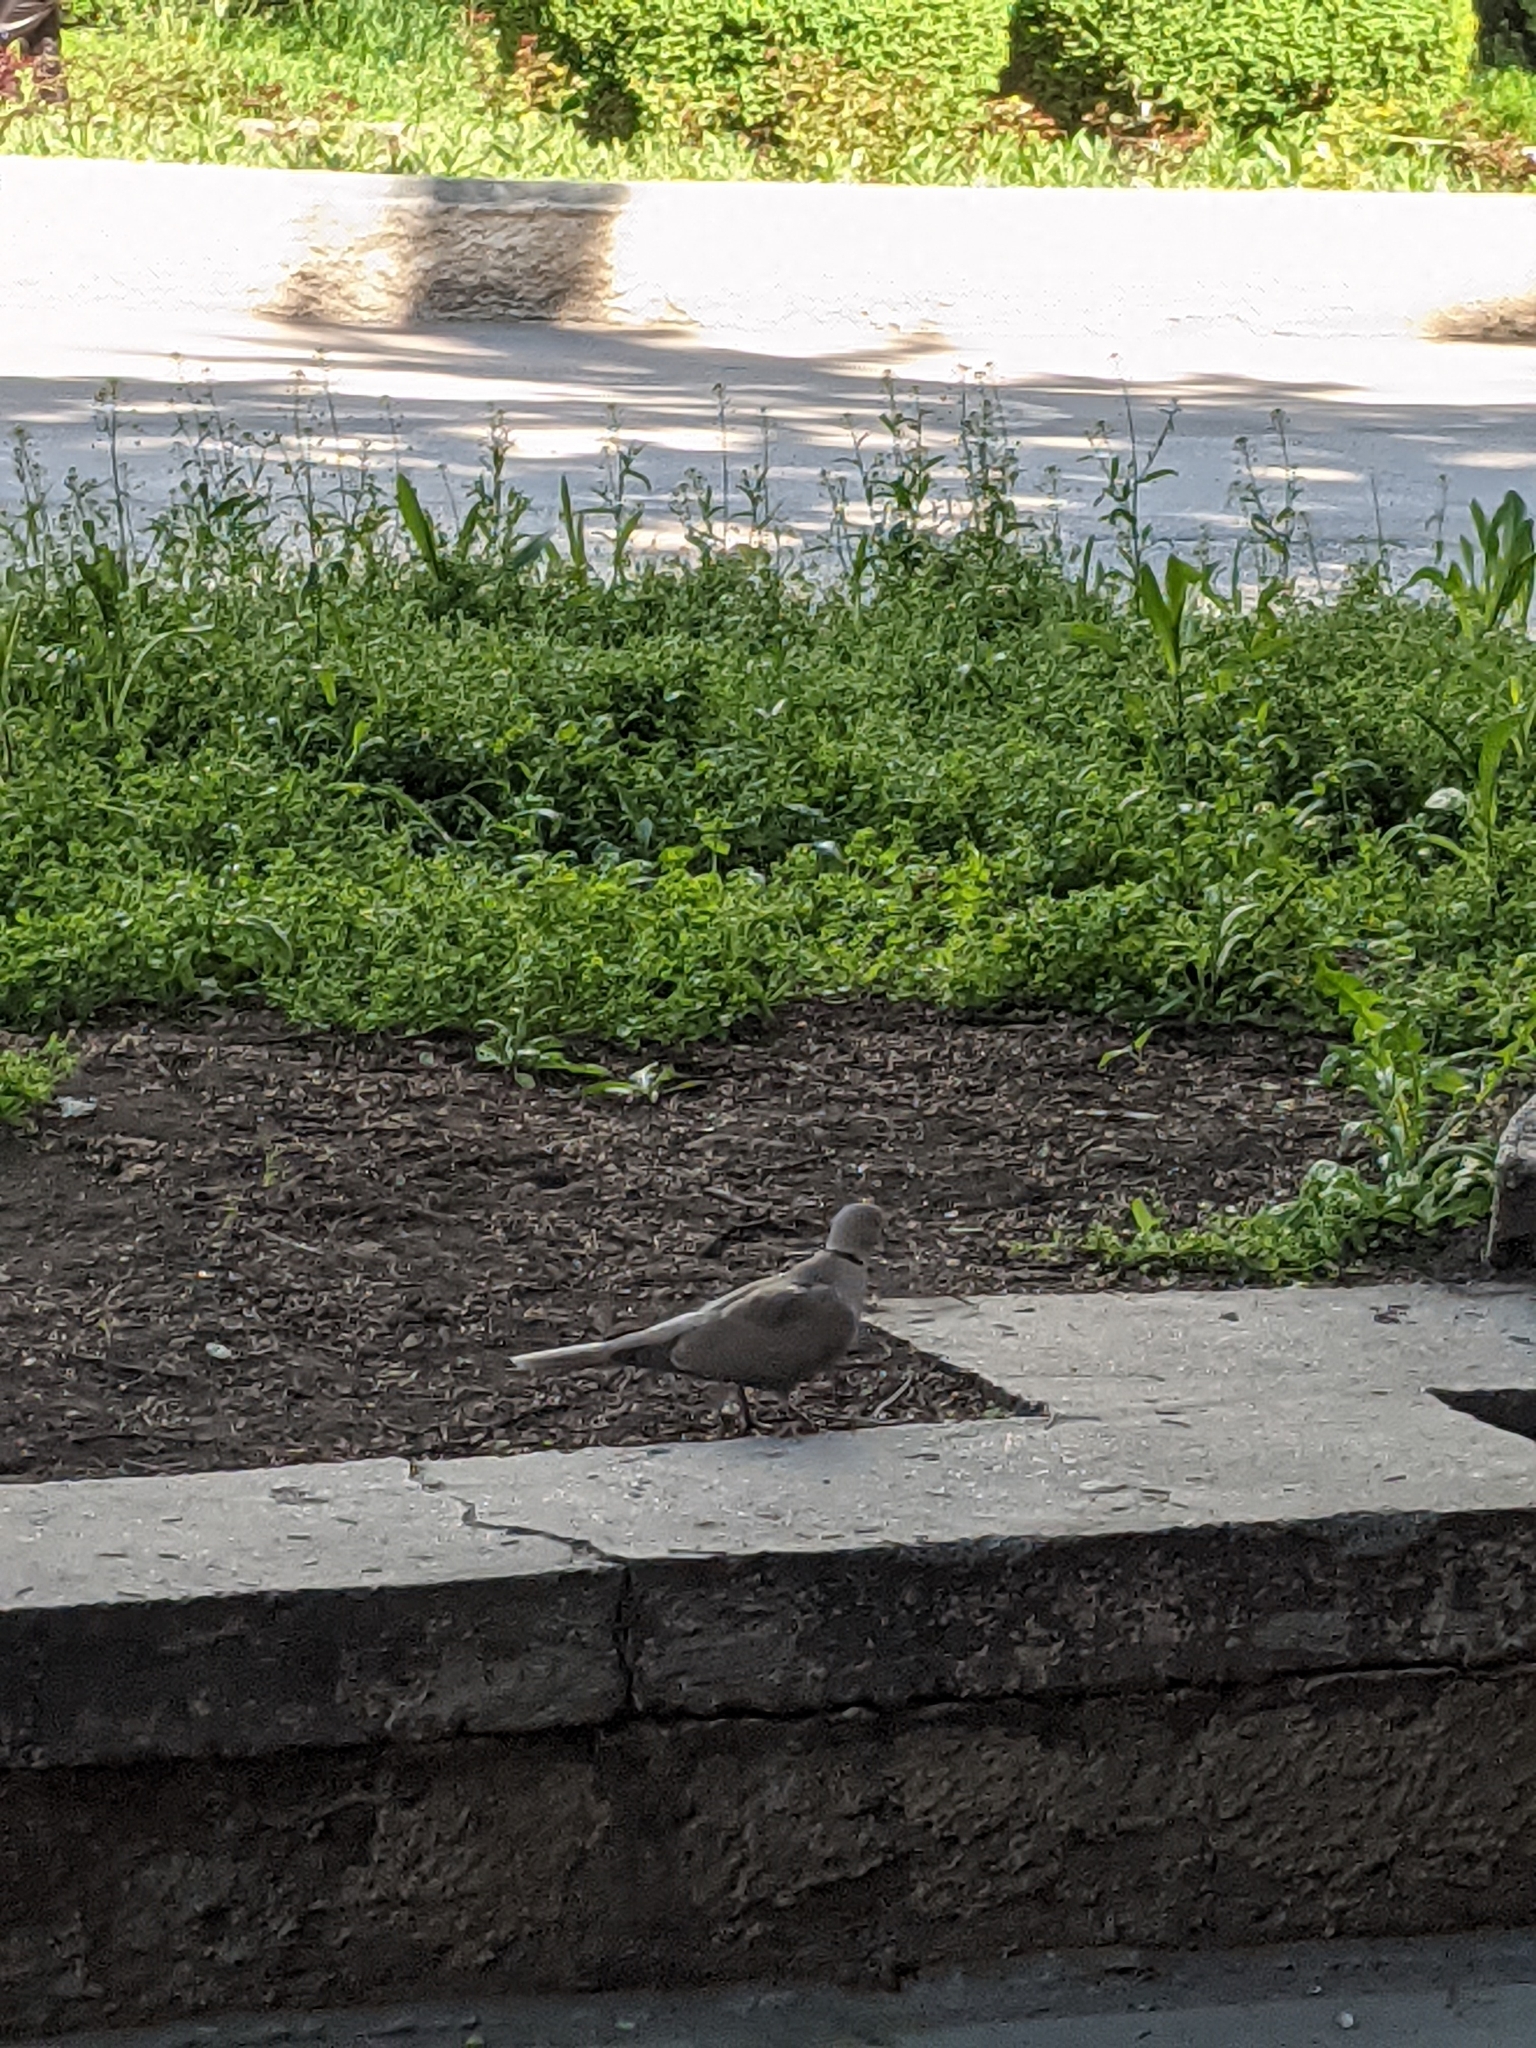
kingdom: Animalia
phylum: Chordata
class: Aves
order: Columbiformes
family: Columbidae
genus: Streptopelia
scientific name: Streptopelia decaocto
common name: Eurasian collared dove
